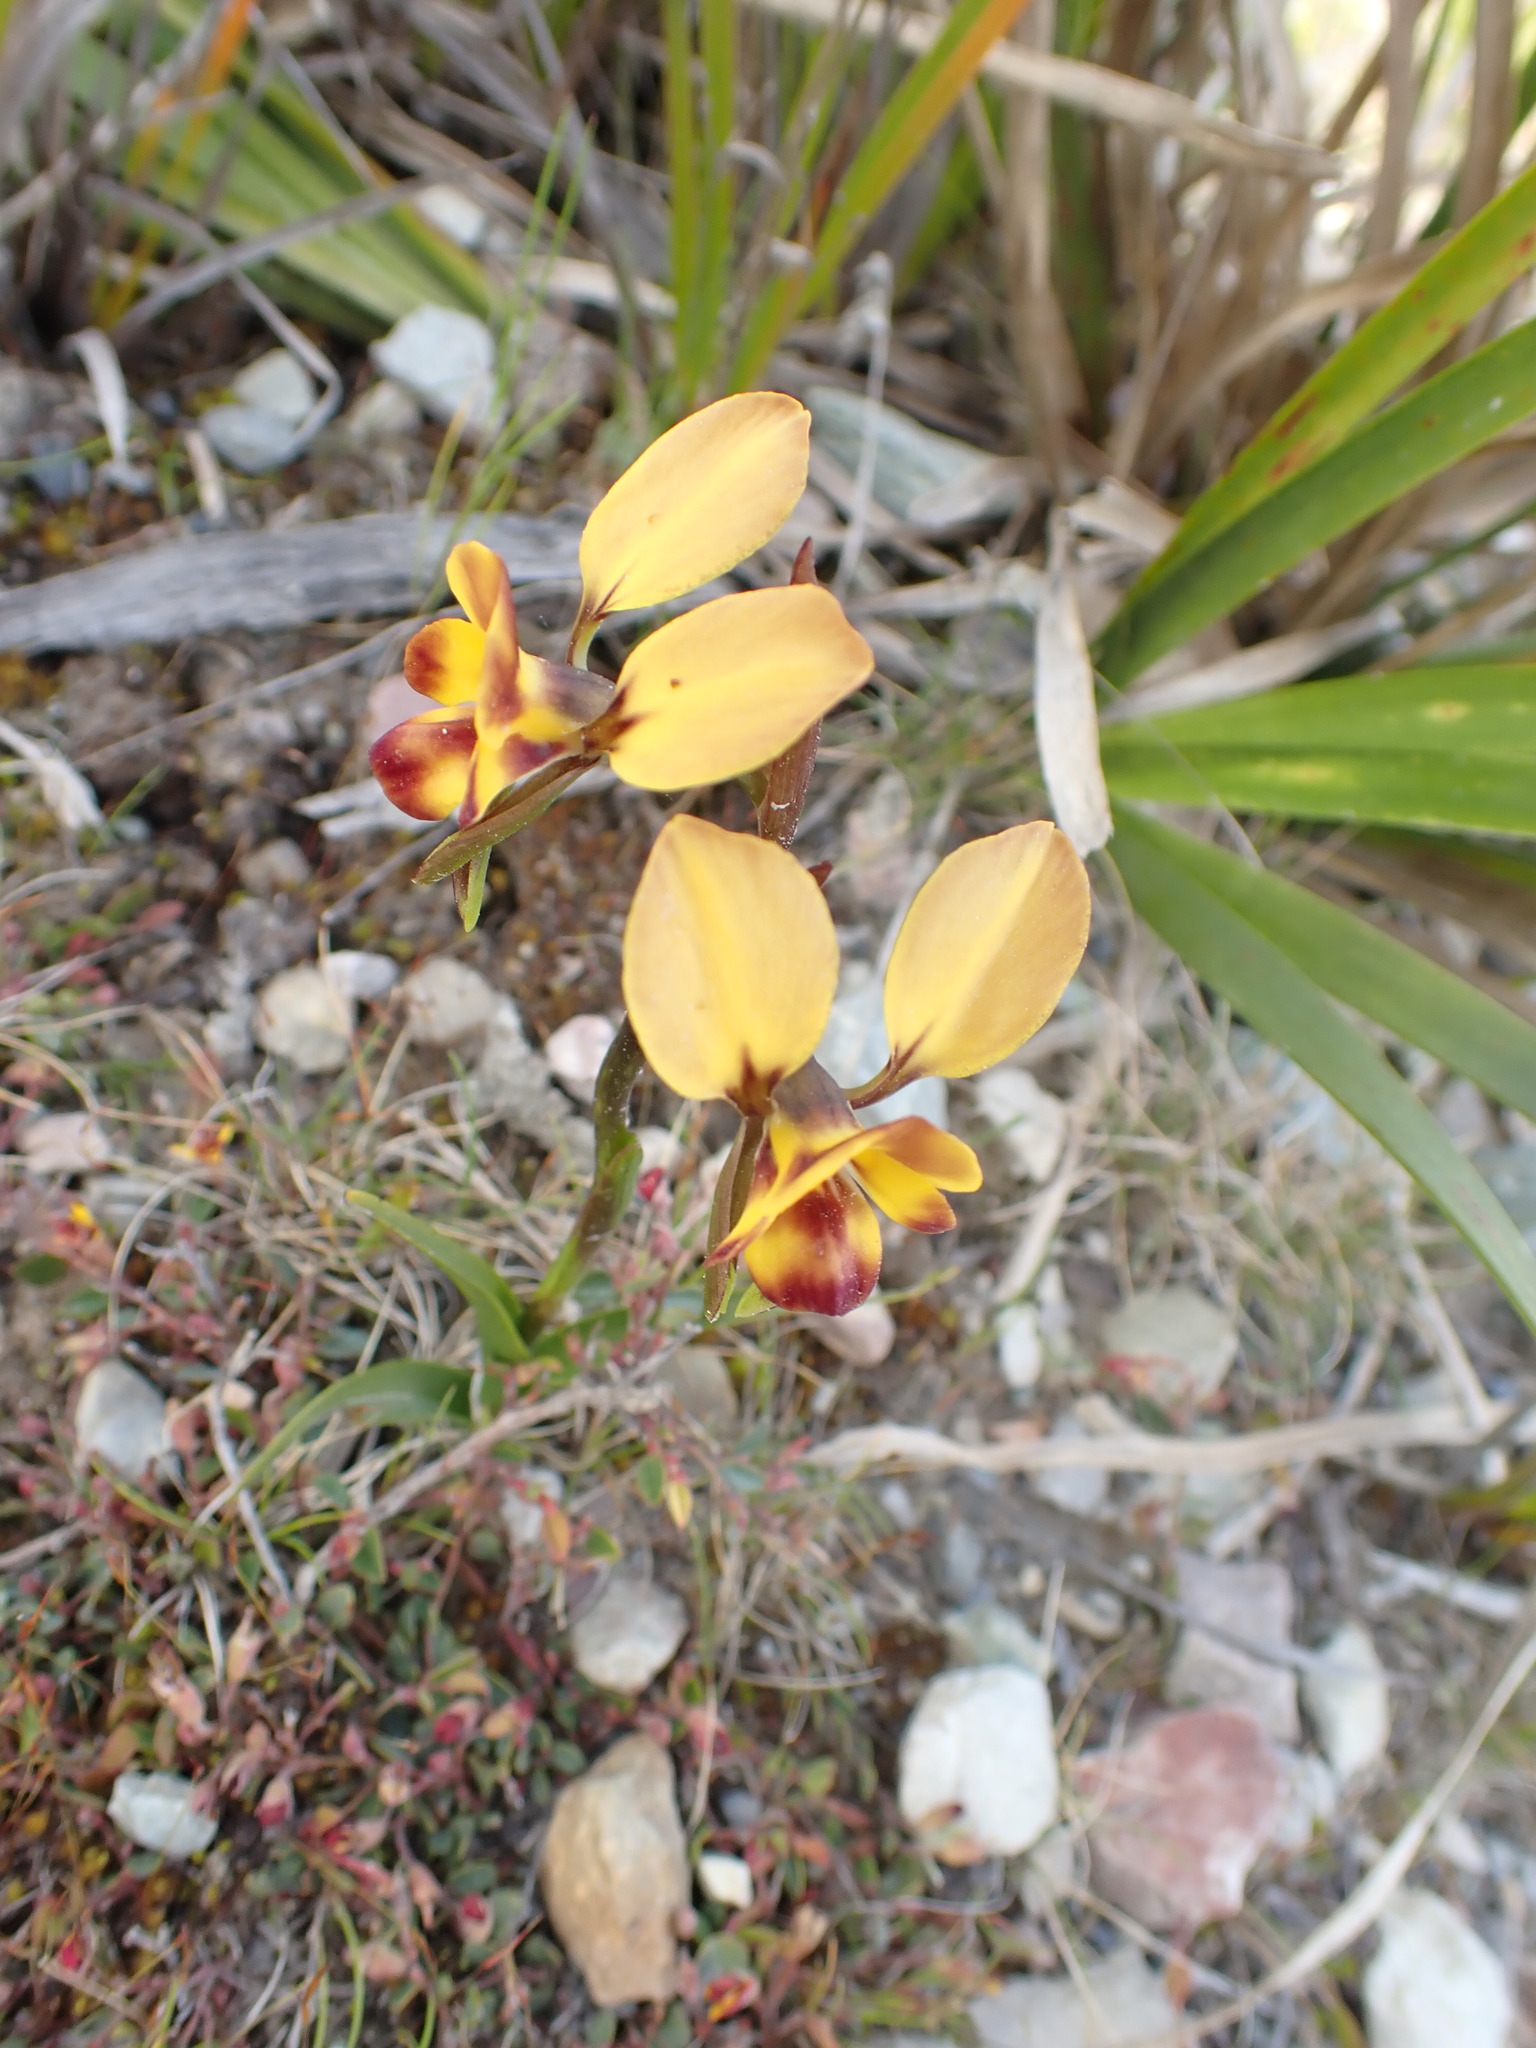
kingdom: Plantae
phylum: Tracheophyta
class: Liliopsida
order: Asparagales
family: Orchidaceae
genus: Diuris
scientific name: Diuris orientis
